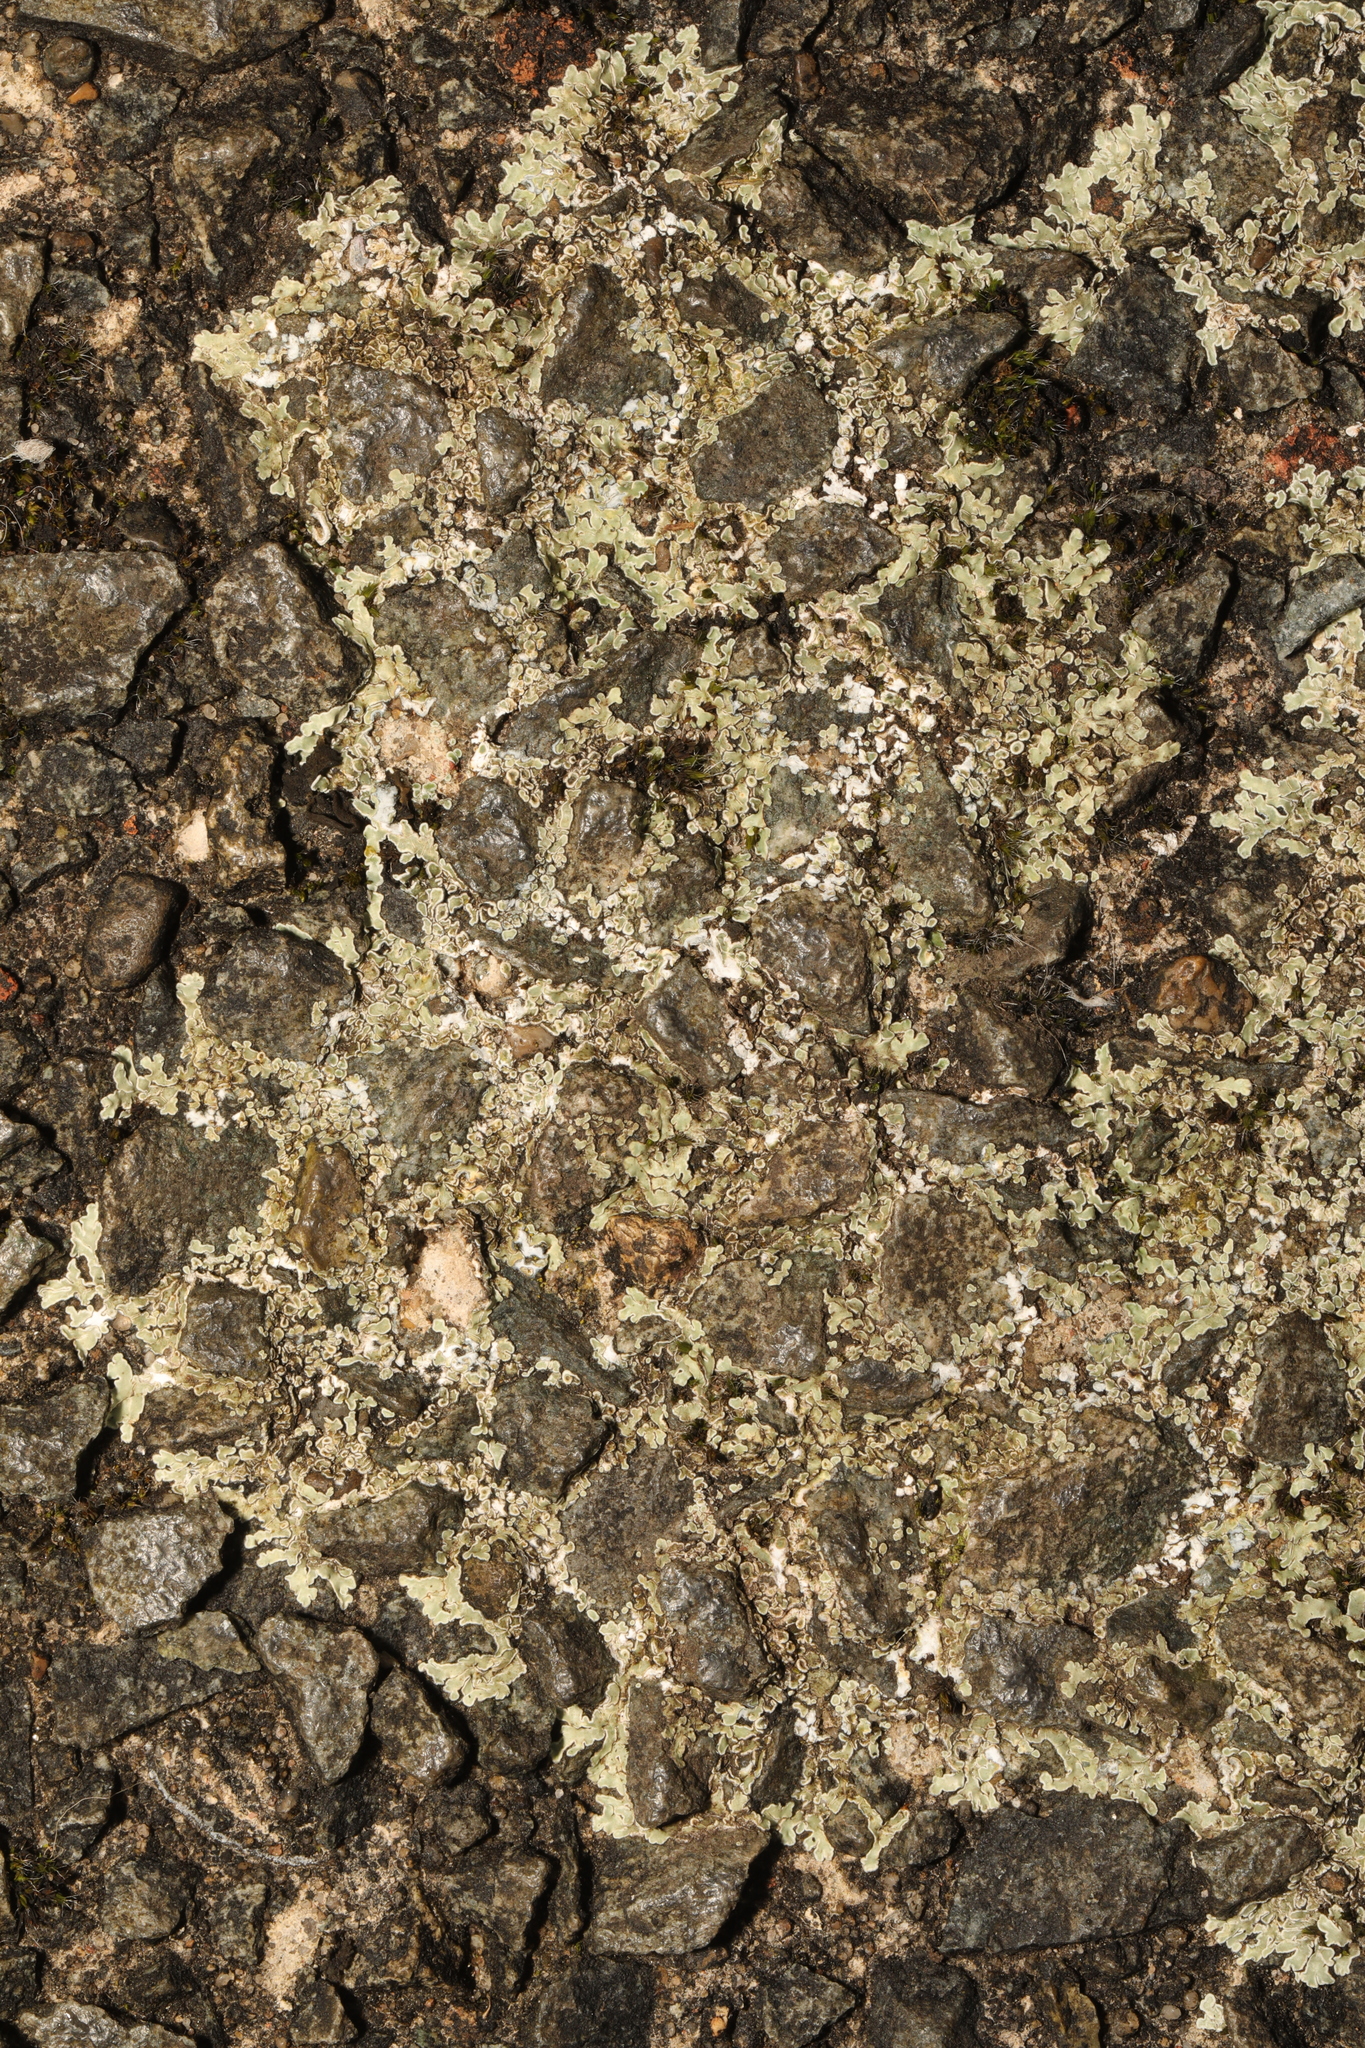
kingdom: Fungi
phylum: Ascomycota
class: Lecanoromycetes
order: Lecanorales
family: Lecanoraceae
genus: Protoparmeliopsis
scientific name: Protoparmeliopsis muralis
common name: Stonewall rim lichen
